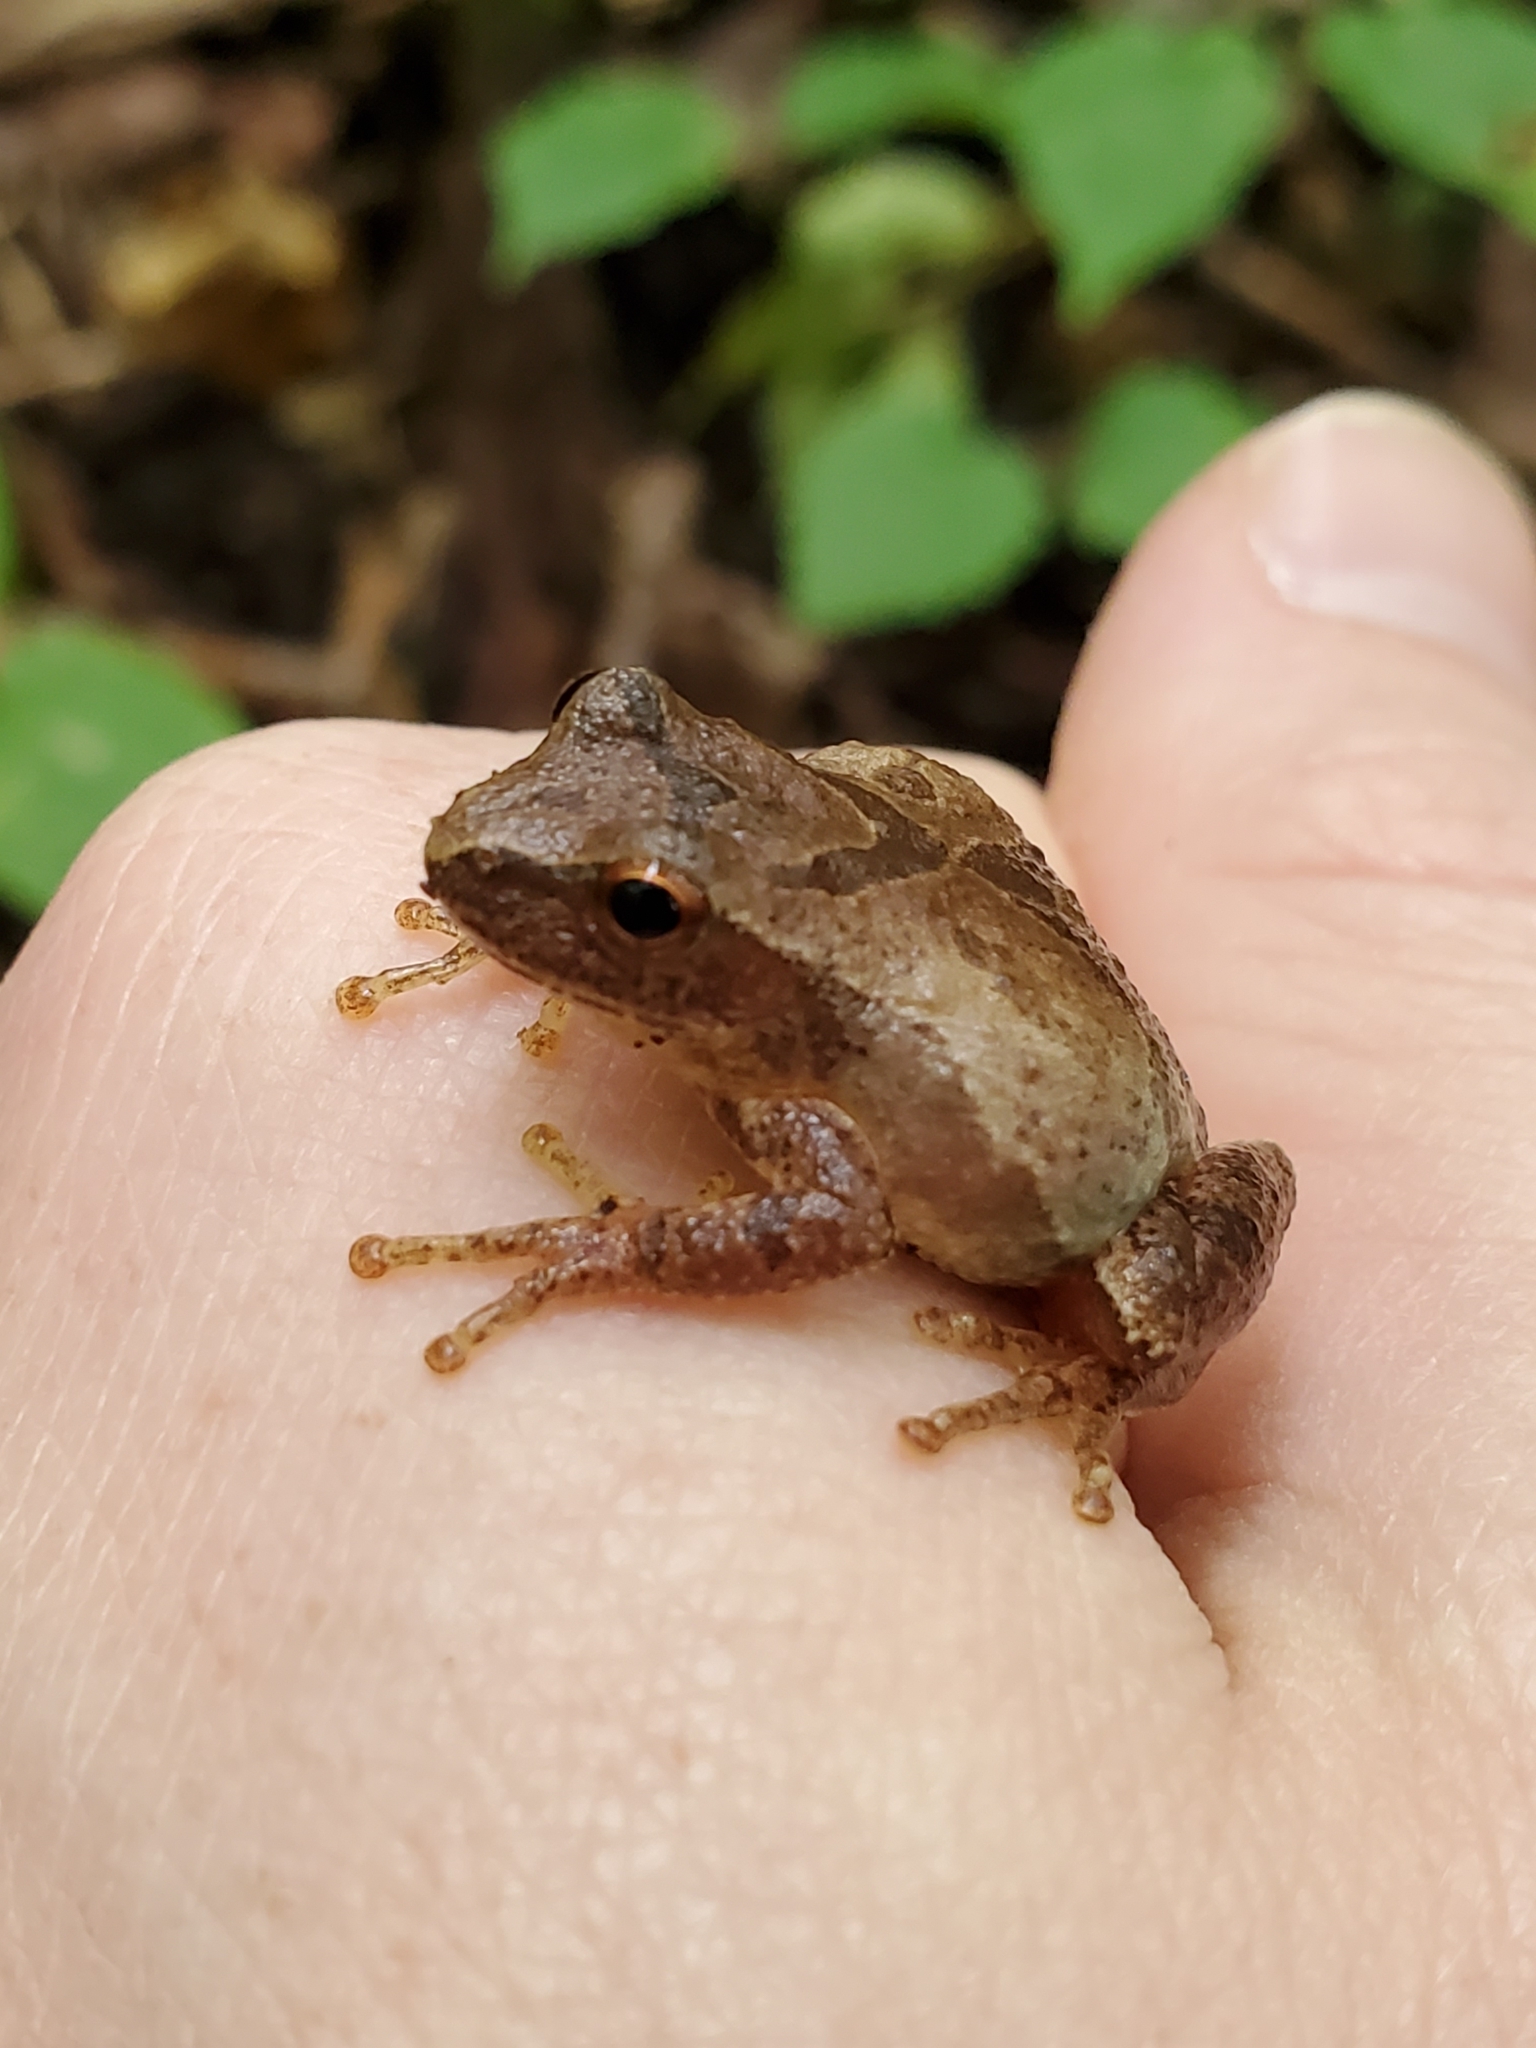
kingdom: Animalia
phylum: Chordata
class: Amphibia
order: Anura
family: Hylidae
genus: Pseudacris
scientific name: Pseudacris crucifer
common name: Spring peeper
